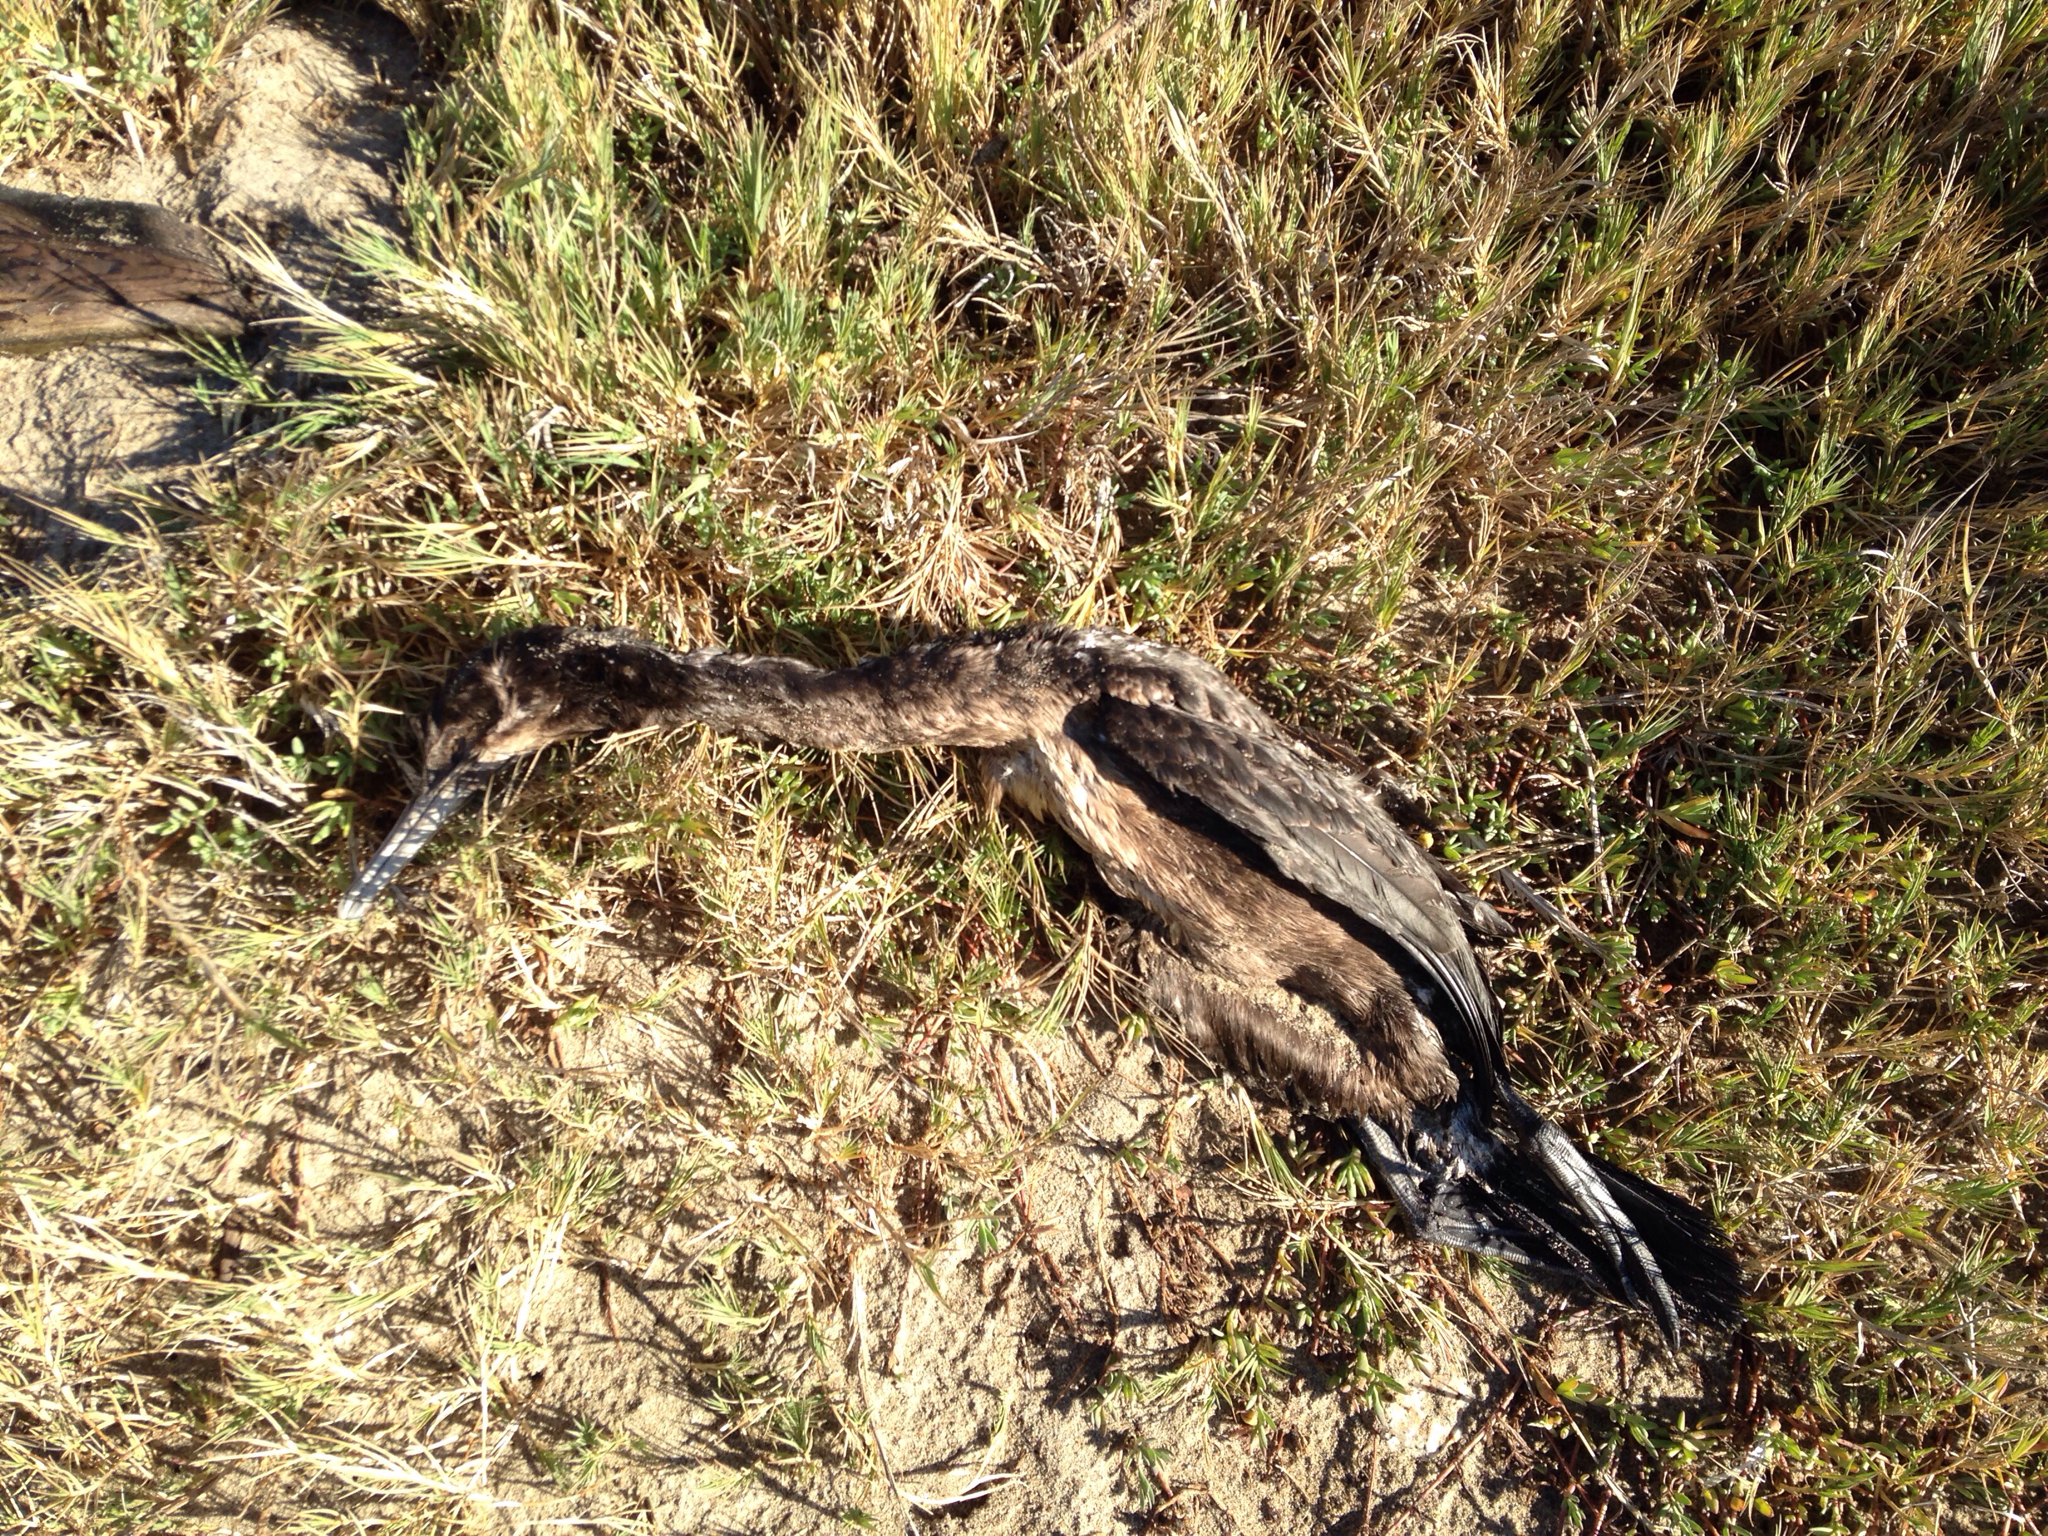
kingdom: Animalia
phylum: Chordata
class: Aves
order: Suliformes
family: Phalacrocoracidae
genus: Urile
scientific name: Urile penicillatus
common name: Brandt's cormorant
